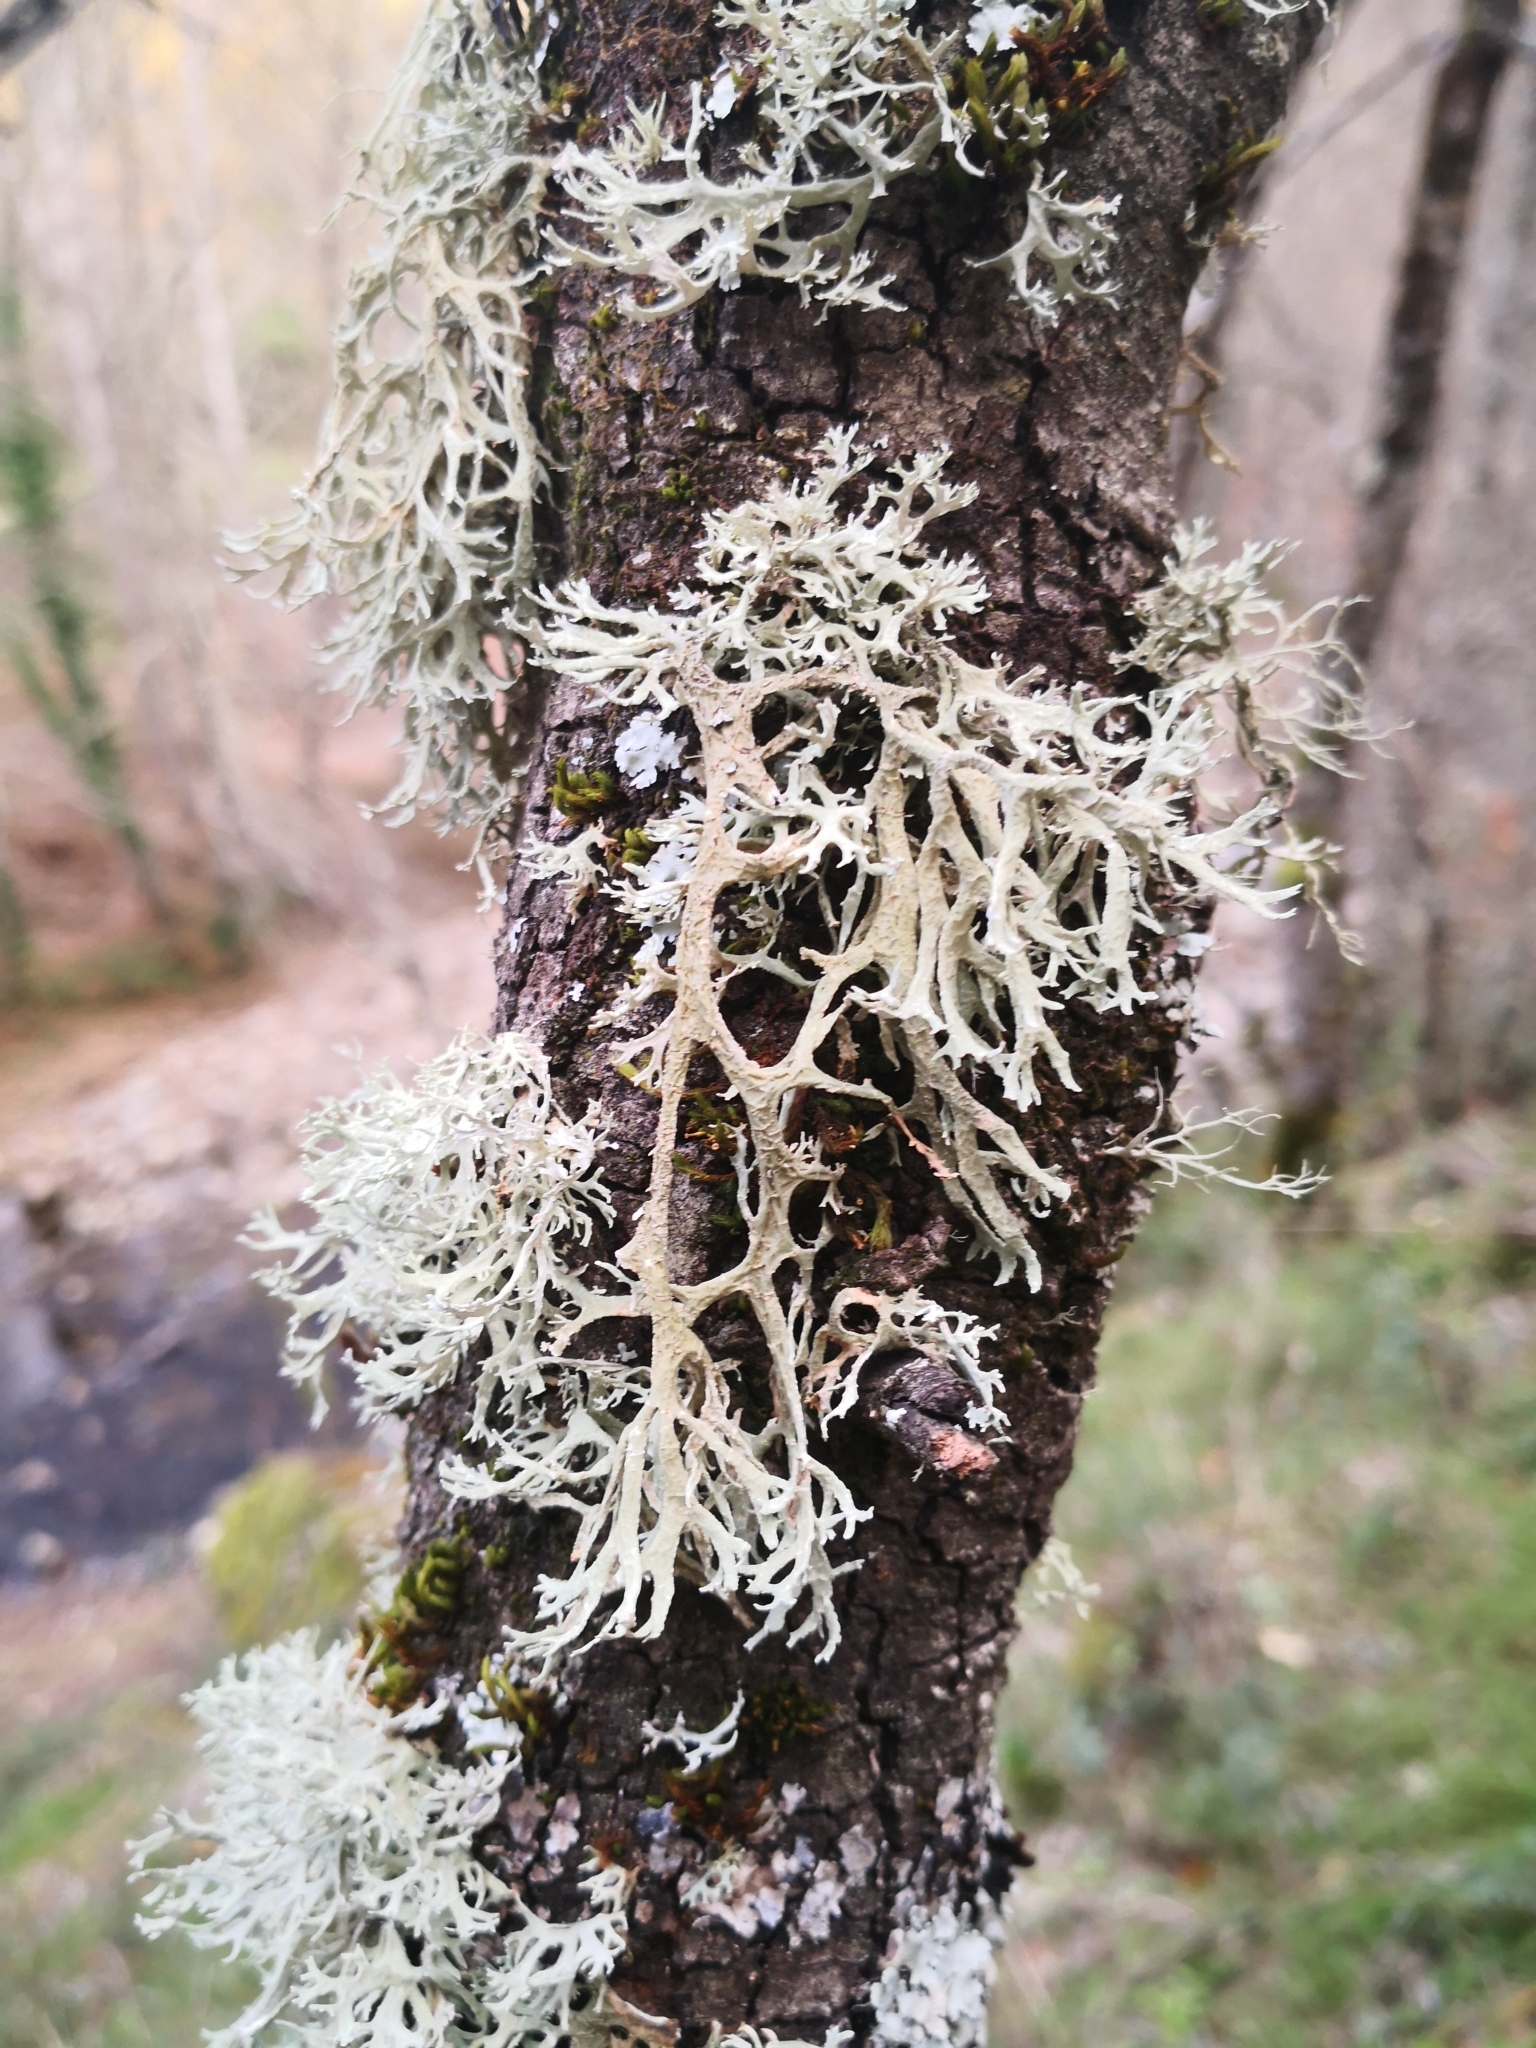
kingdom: Fungi
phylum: Ascomycota
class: Lecanoromycetes
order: Lecanorales
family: Parmeliaceae
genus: Evernia
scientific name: Evernia prunastri
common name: Oak moss
